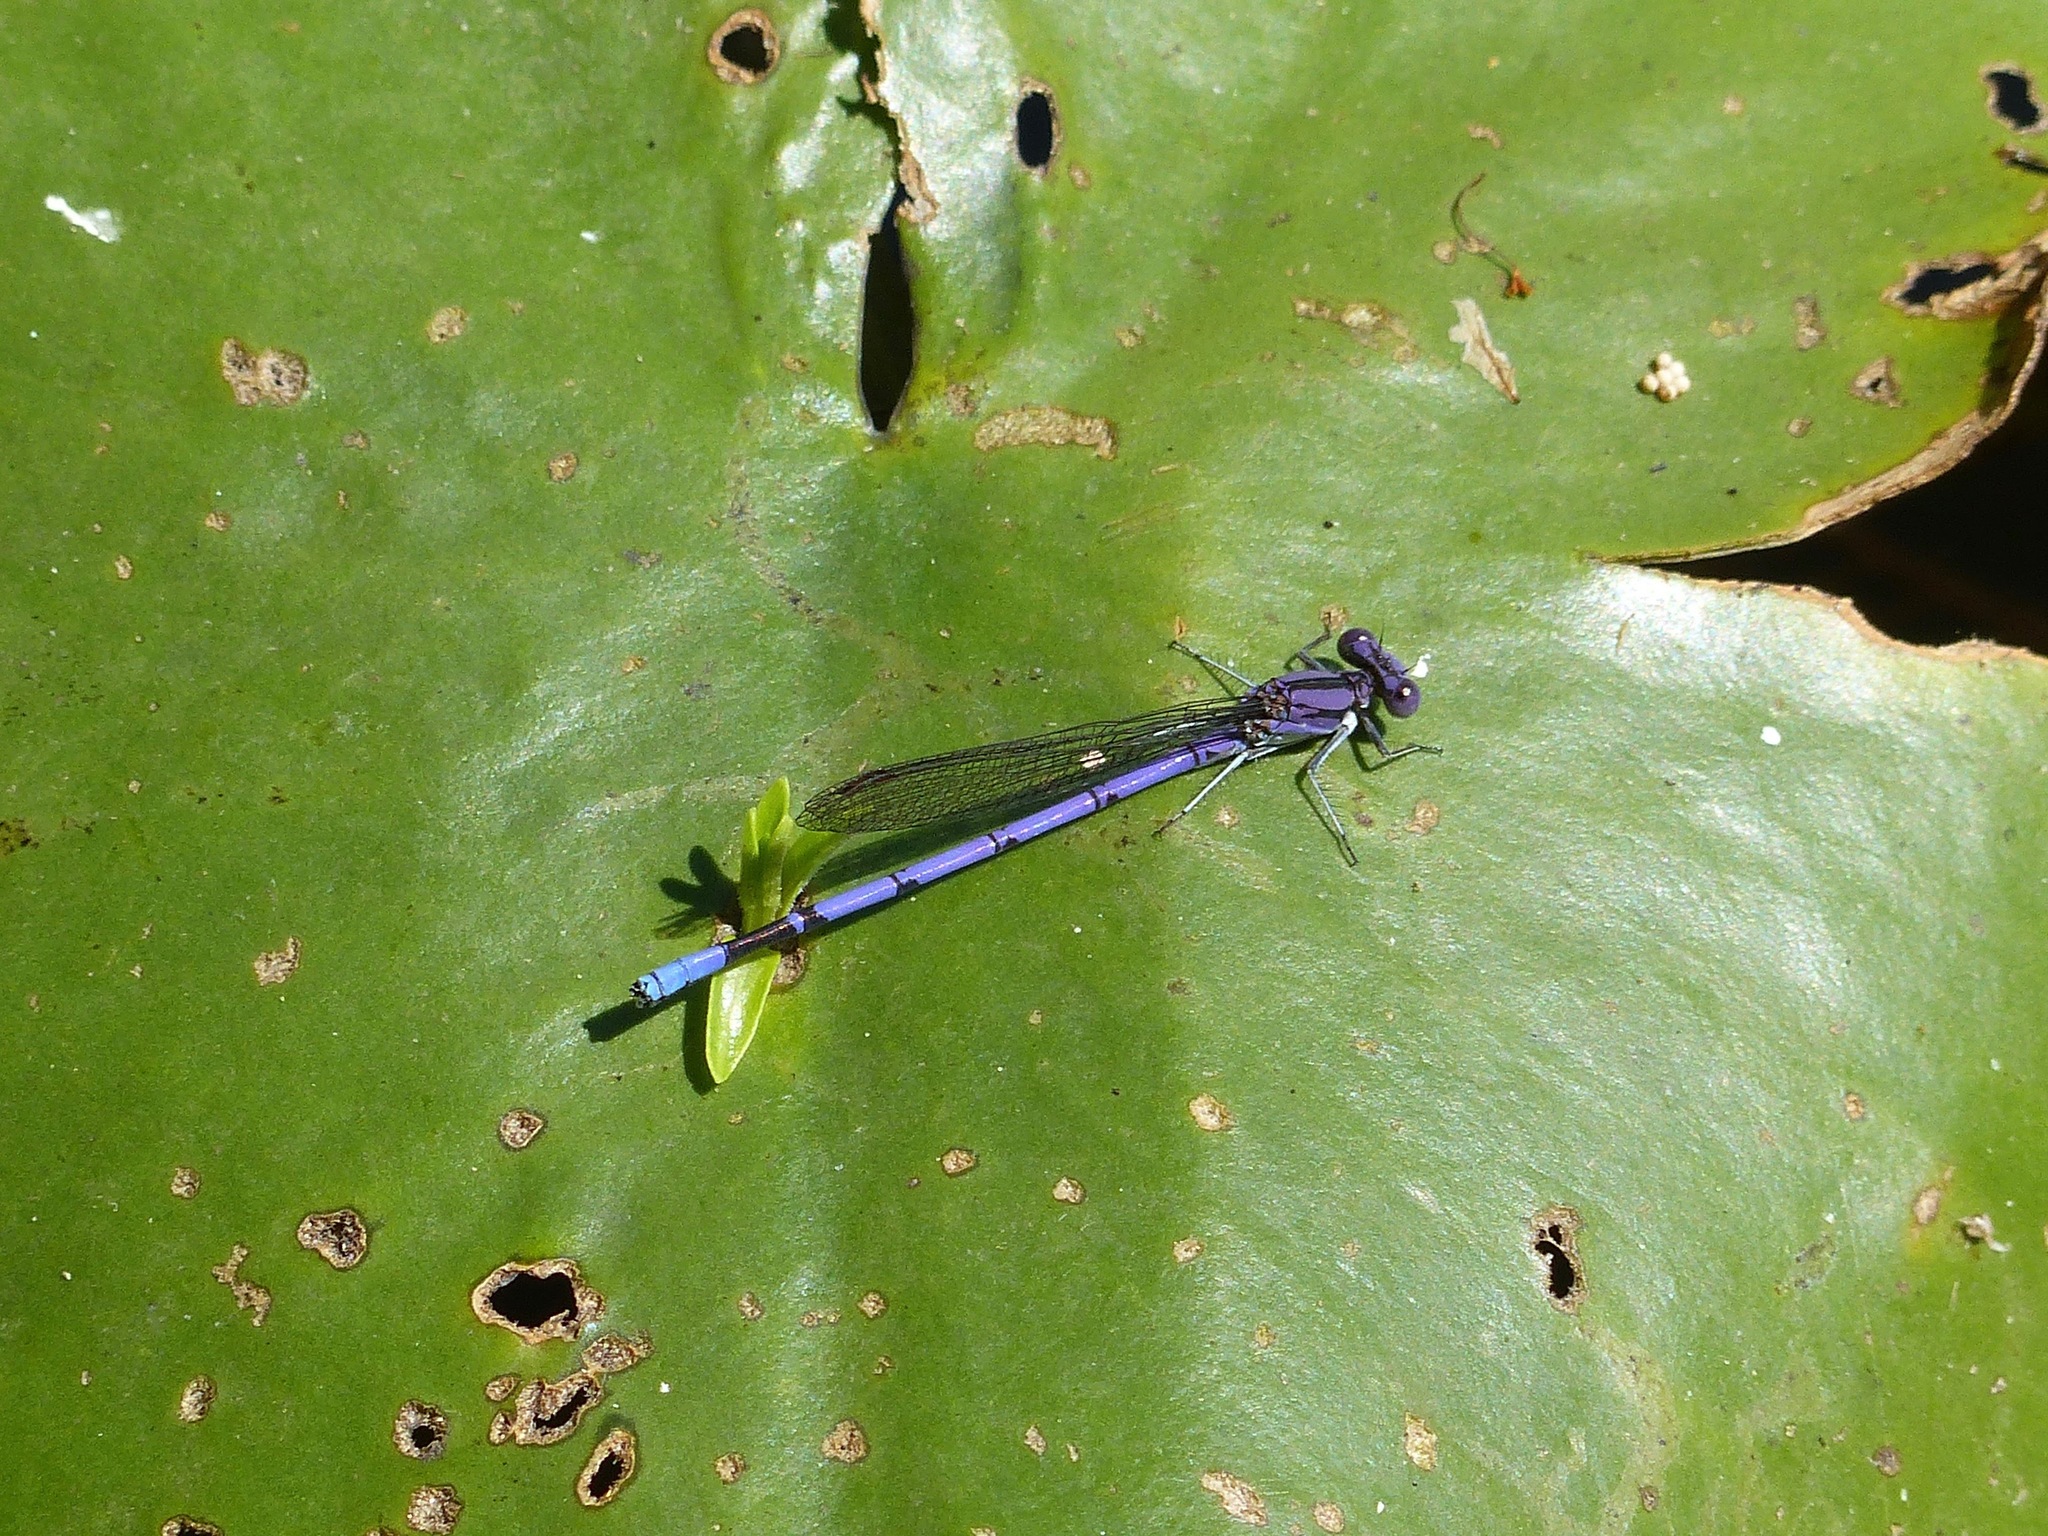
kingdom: Animalia
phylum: Arthropoda
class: Insecta
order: Odonata
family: Coenagrionidae
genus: Argia
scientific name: Argia fumipennis
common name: Variable dancer
